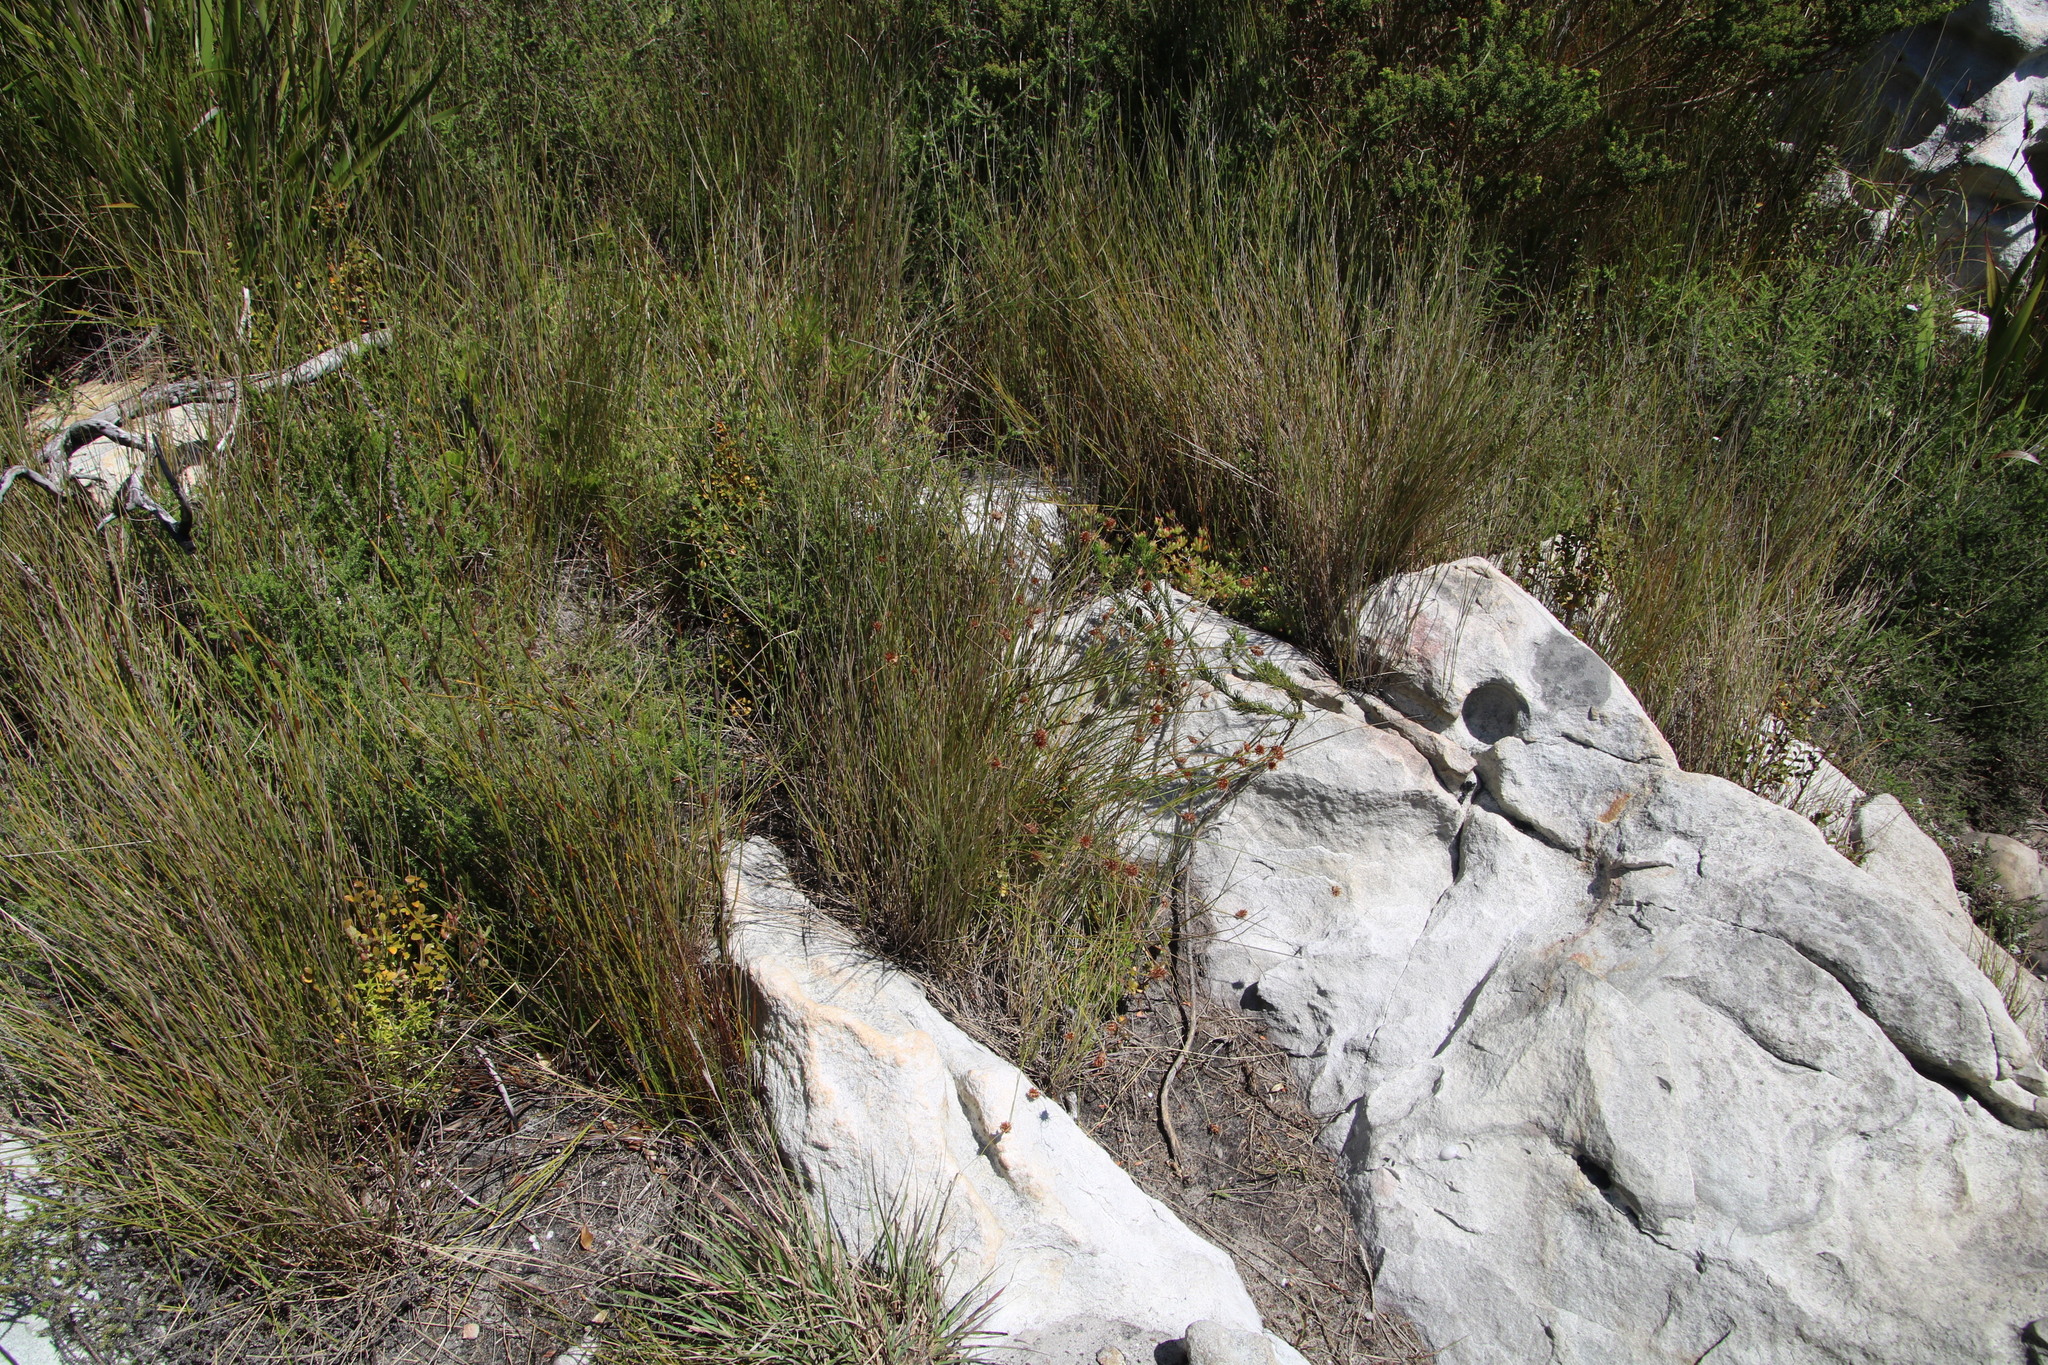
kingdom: Plantae
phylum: Tracheophyta
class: Liliopsida
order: Poales
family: Cyperaceae
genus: Ficinia
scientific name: Ficinia nigrescens
